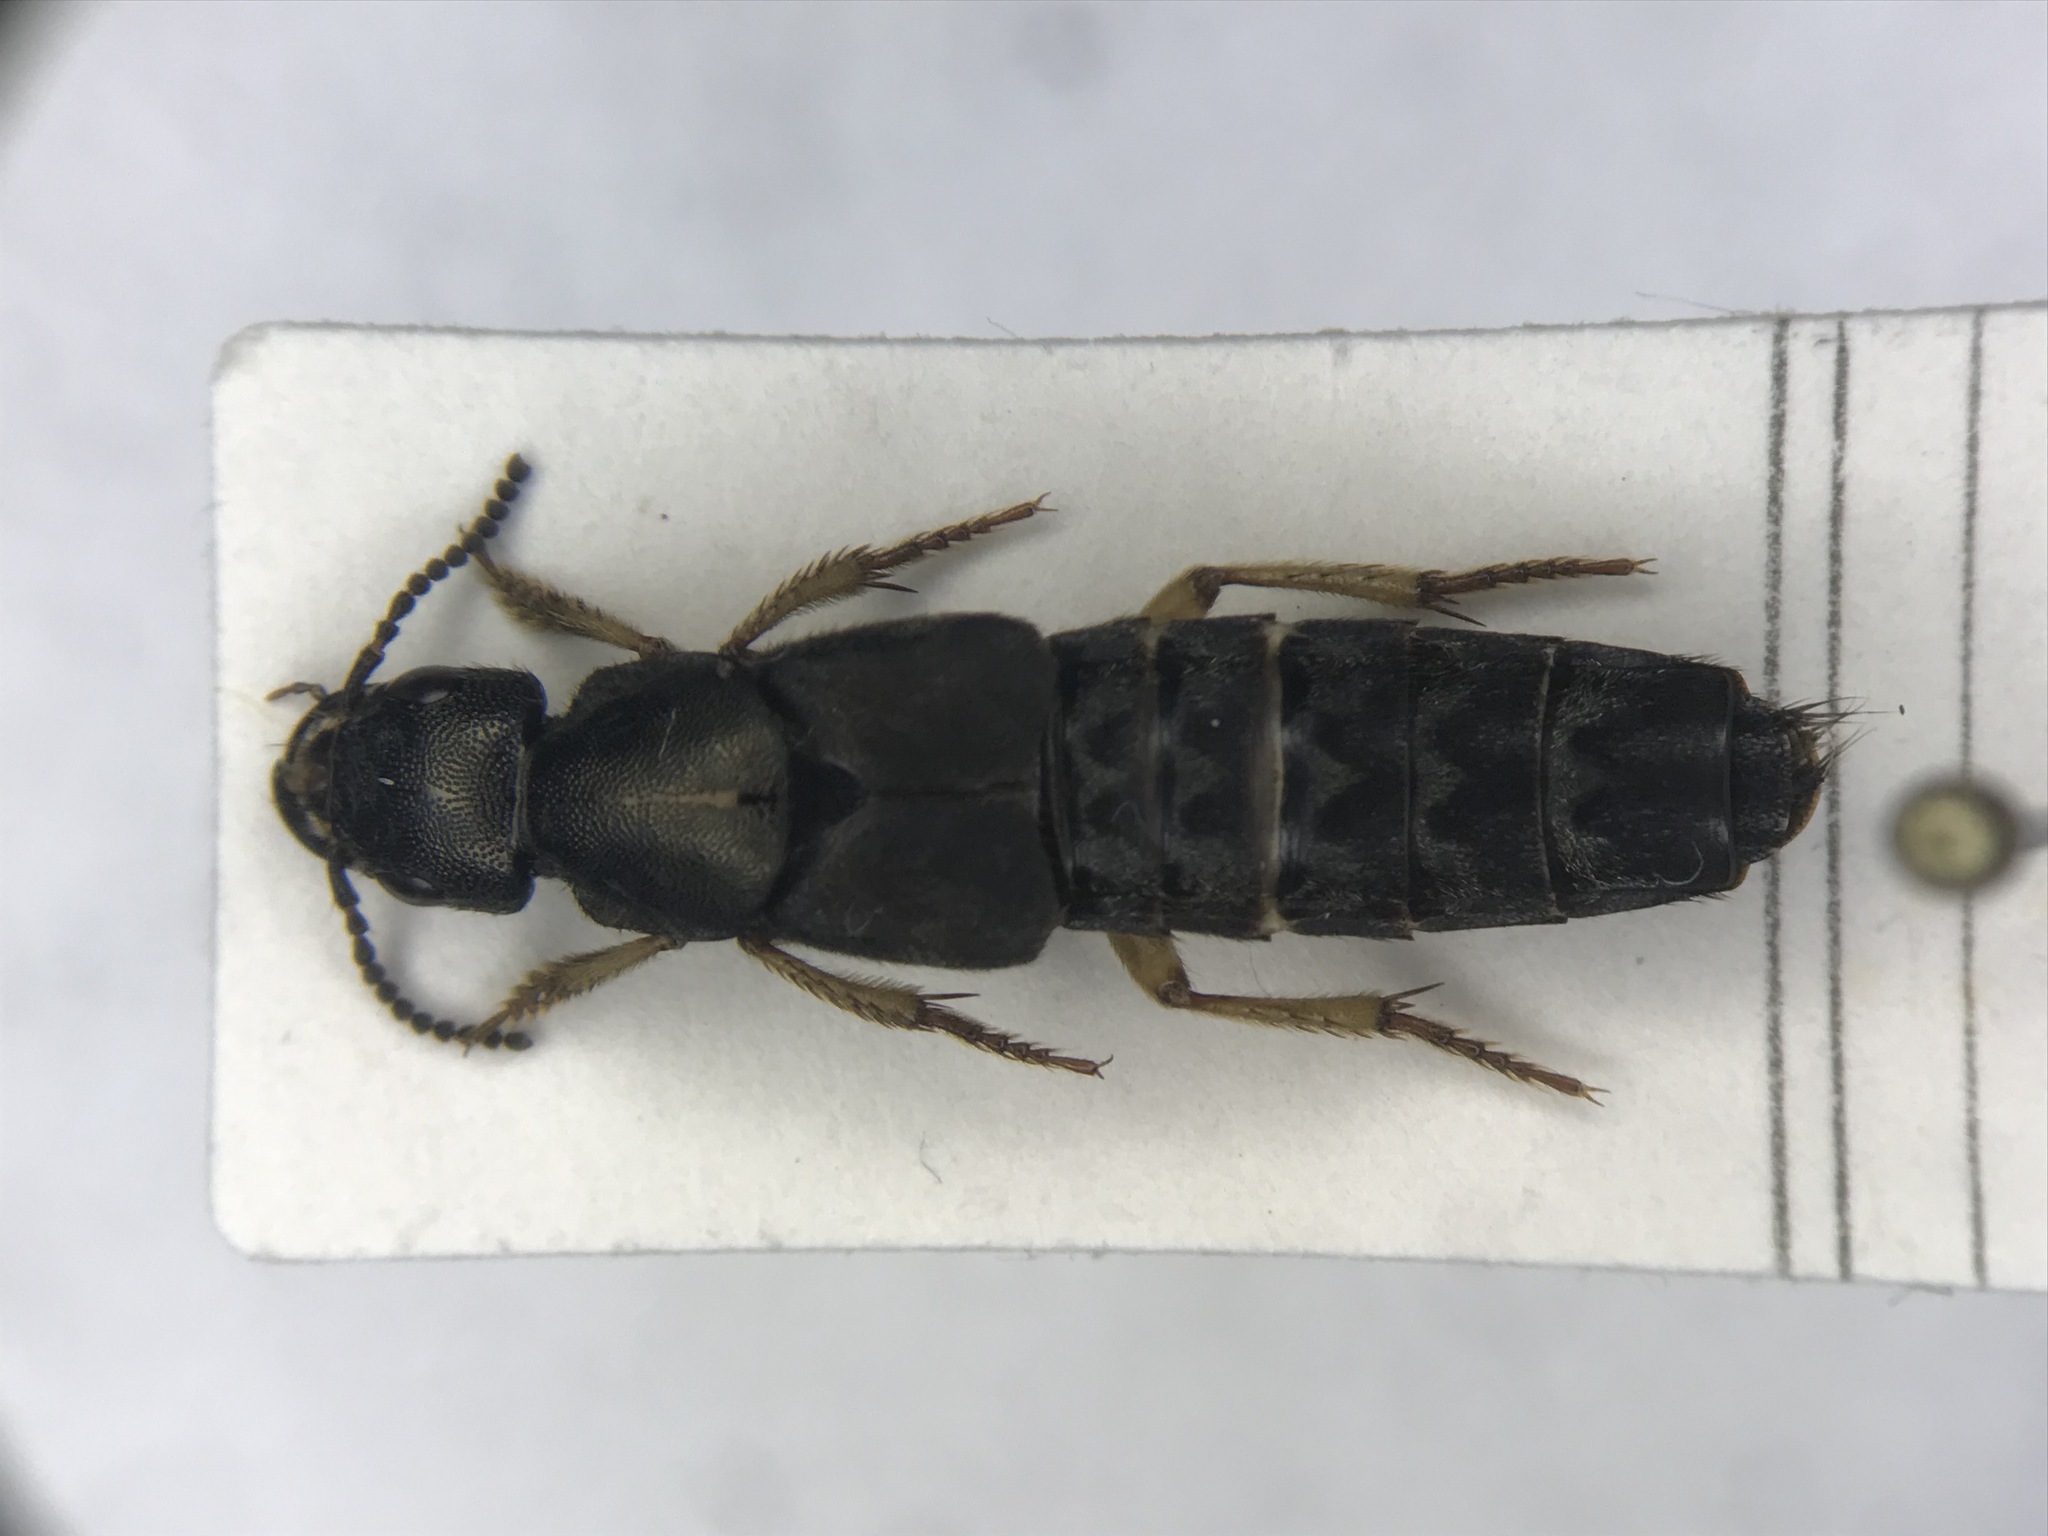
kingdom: Animalia
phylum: Arthropoda
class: Insecta
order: Coleoptera
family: Staphylinidae
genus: Platydracus
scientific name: Platydracus viridanus
